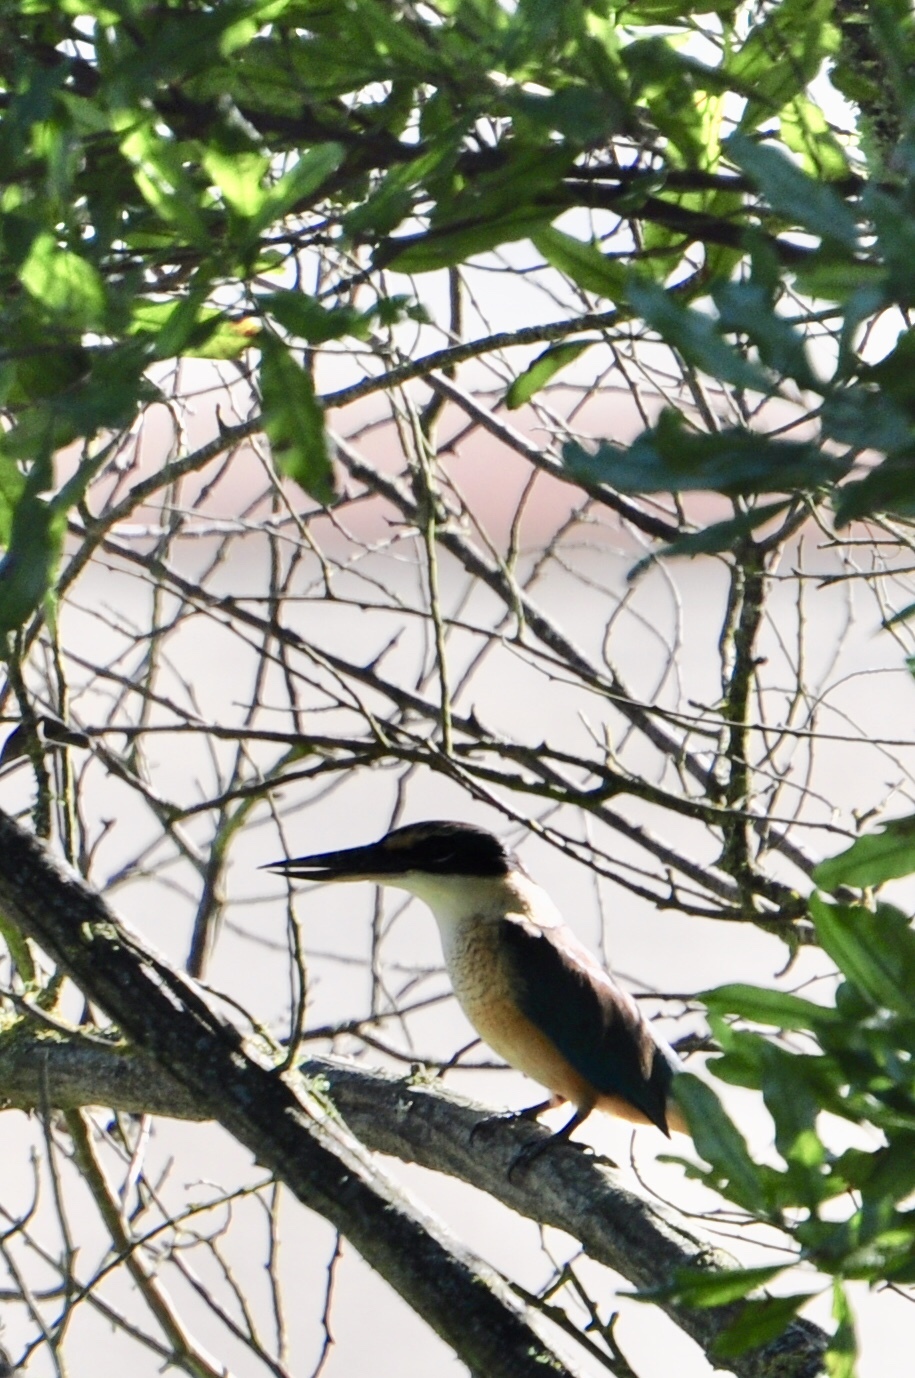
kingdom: Animalia
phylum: Chordata
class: Aves
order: Coraciiformes
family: Alcedinidae
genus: Todiramphus
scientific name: Todiramphus sanctus
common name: Sacred kingfisher
